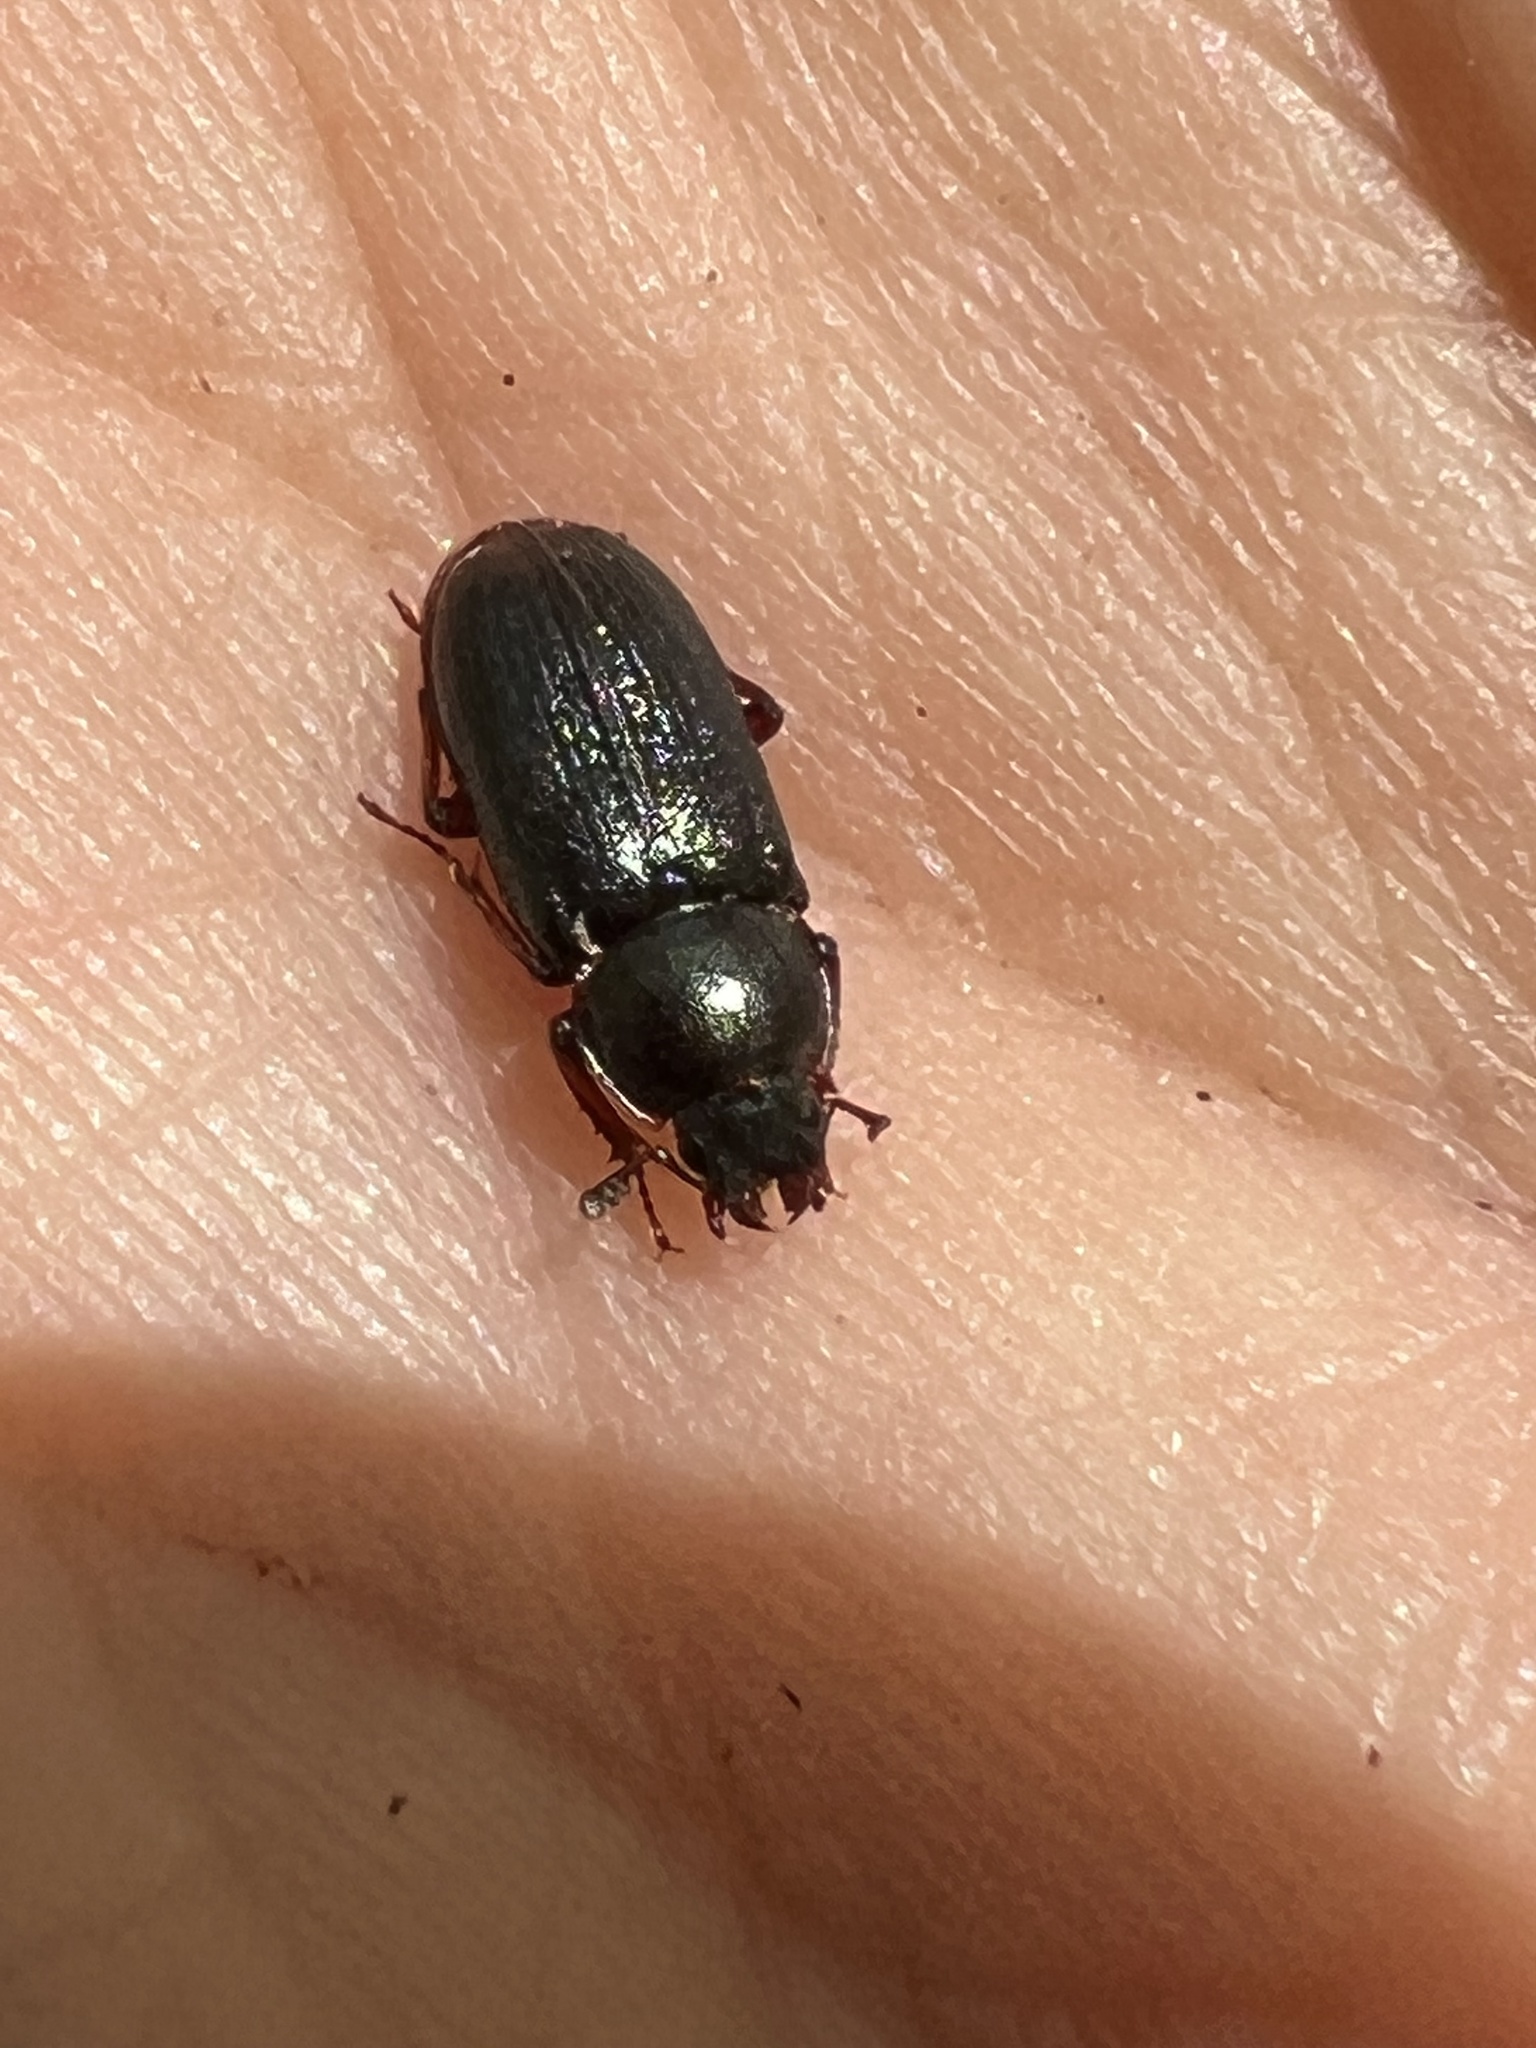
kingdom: Animalia
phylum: Arthropoda
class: Insecta
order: Coleoptera
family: Lucanidae
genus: Platycerus
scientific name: Platycerus quercus
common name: Oak stag beetle
